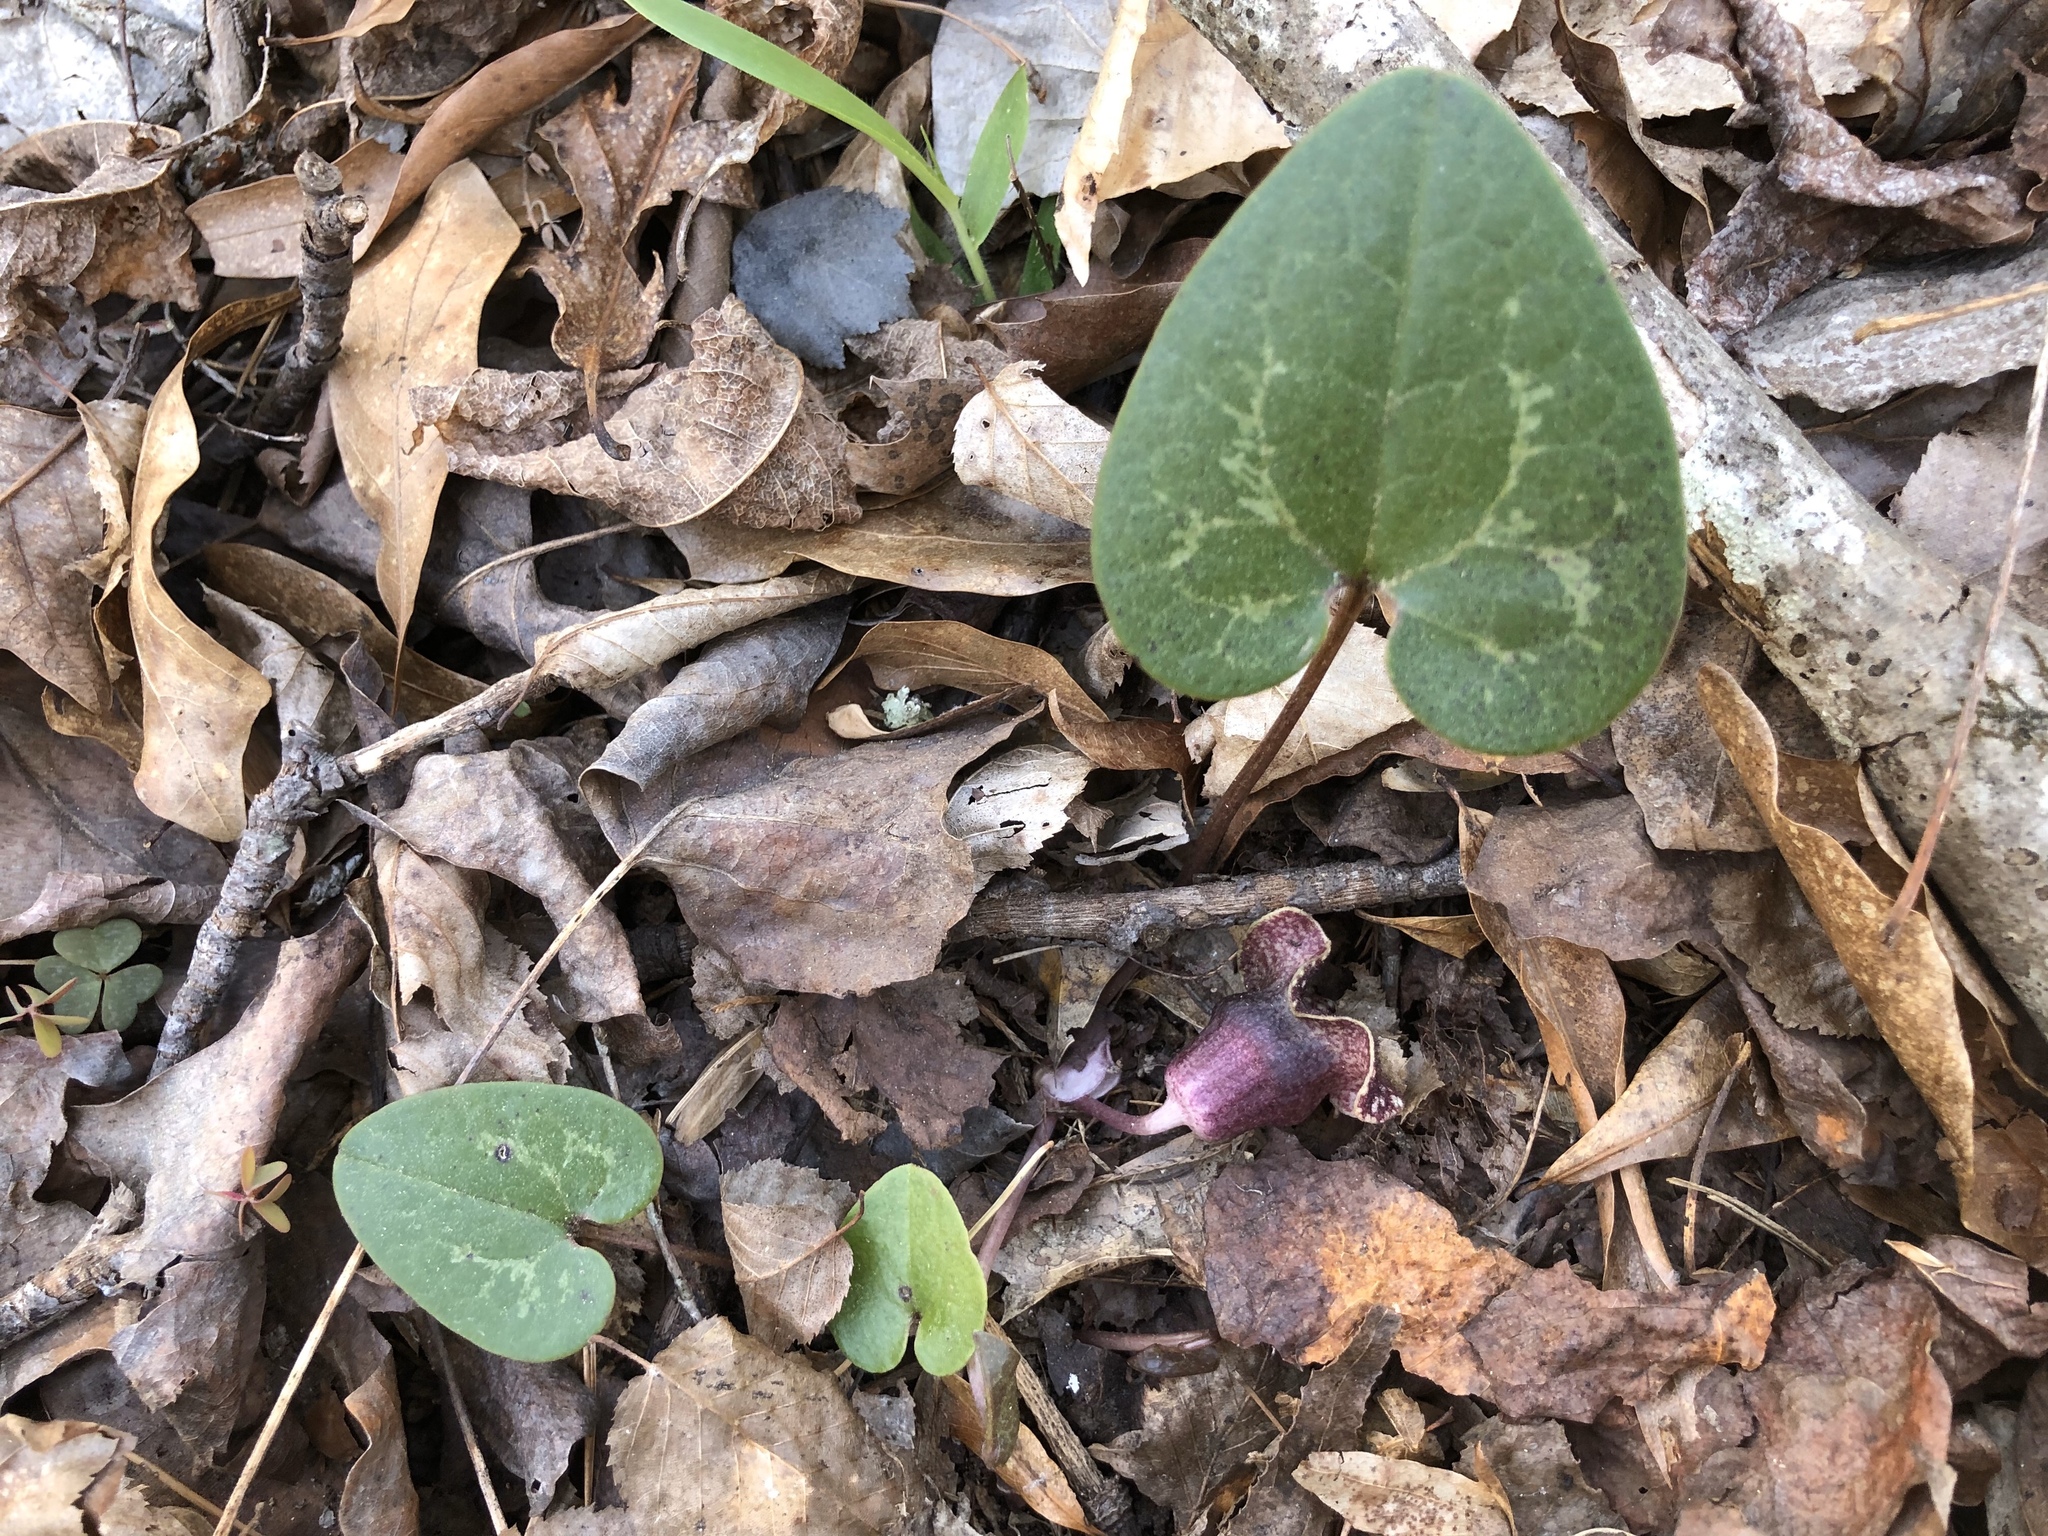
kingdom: Plantae
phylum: Tracheophyta
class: Magnoliopsida
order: Piperales
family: Aristolochiaceae
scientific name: Aristolochiaceae
